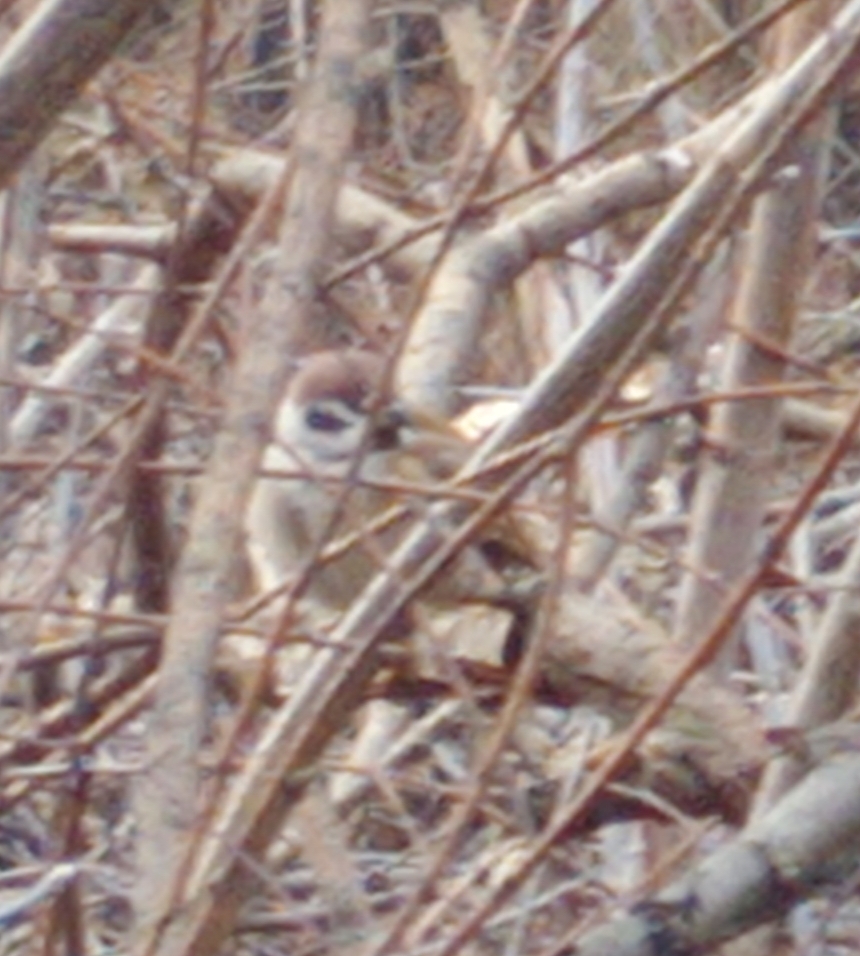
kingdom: Animalia
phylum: Chordata
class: Aves
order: Passeriformes
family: Passeridae
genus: Passer
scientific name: Passer montanus
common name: Eurasian tree sparrow
